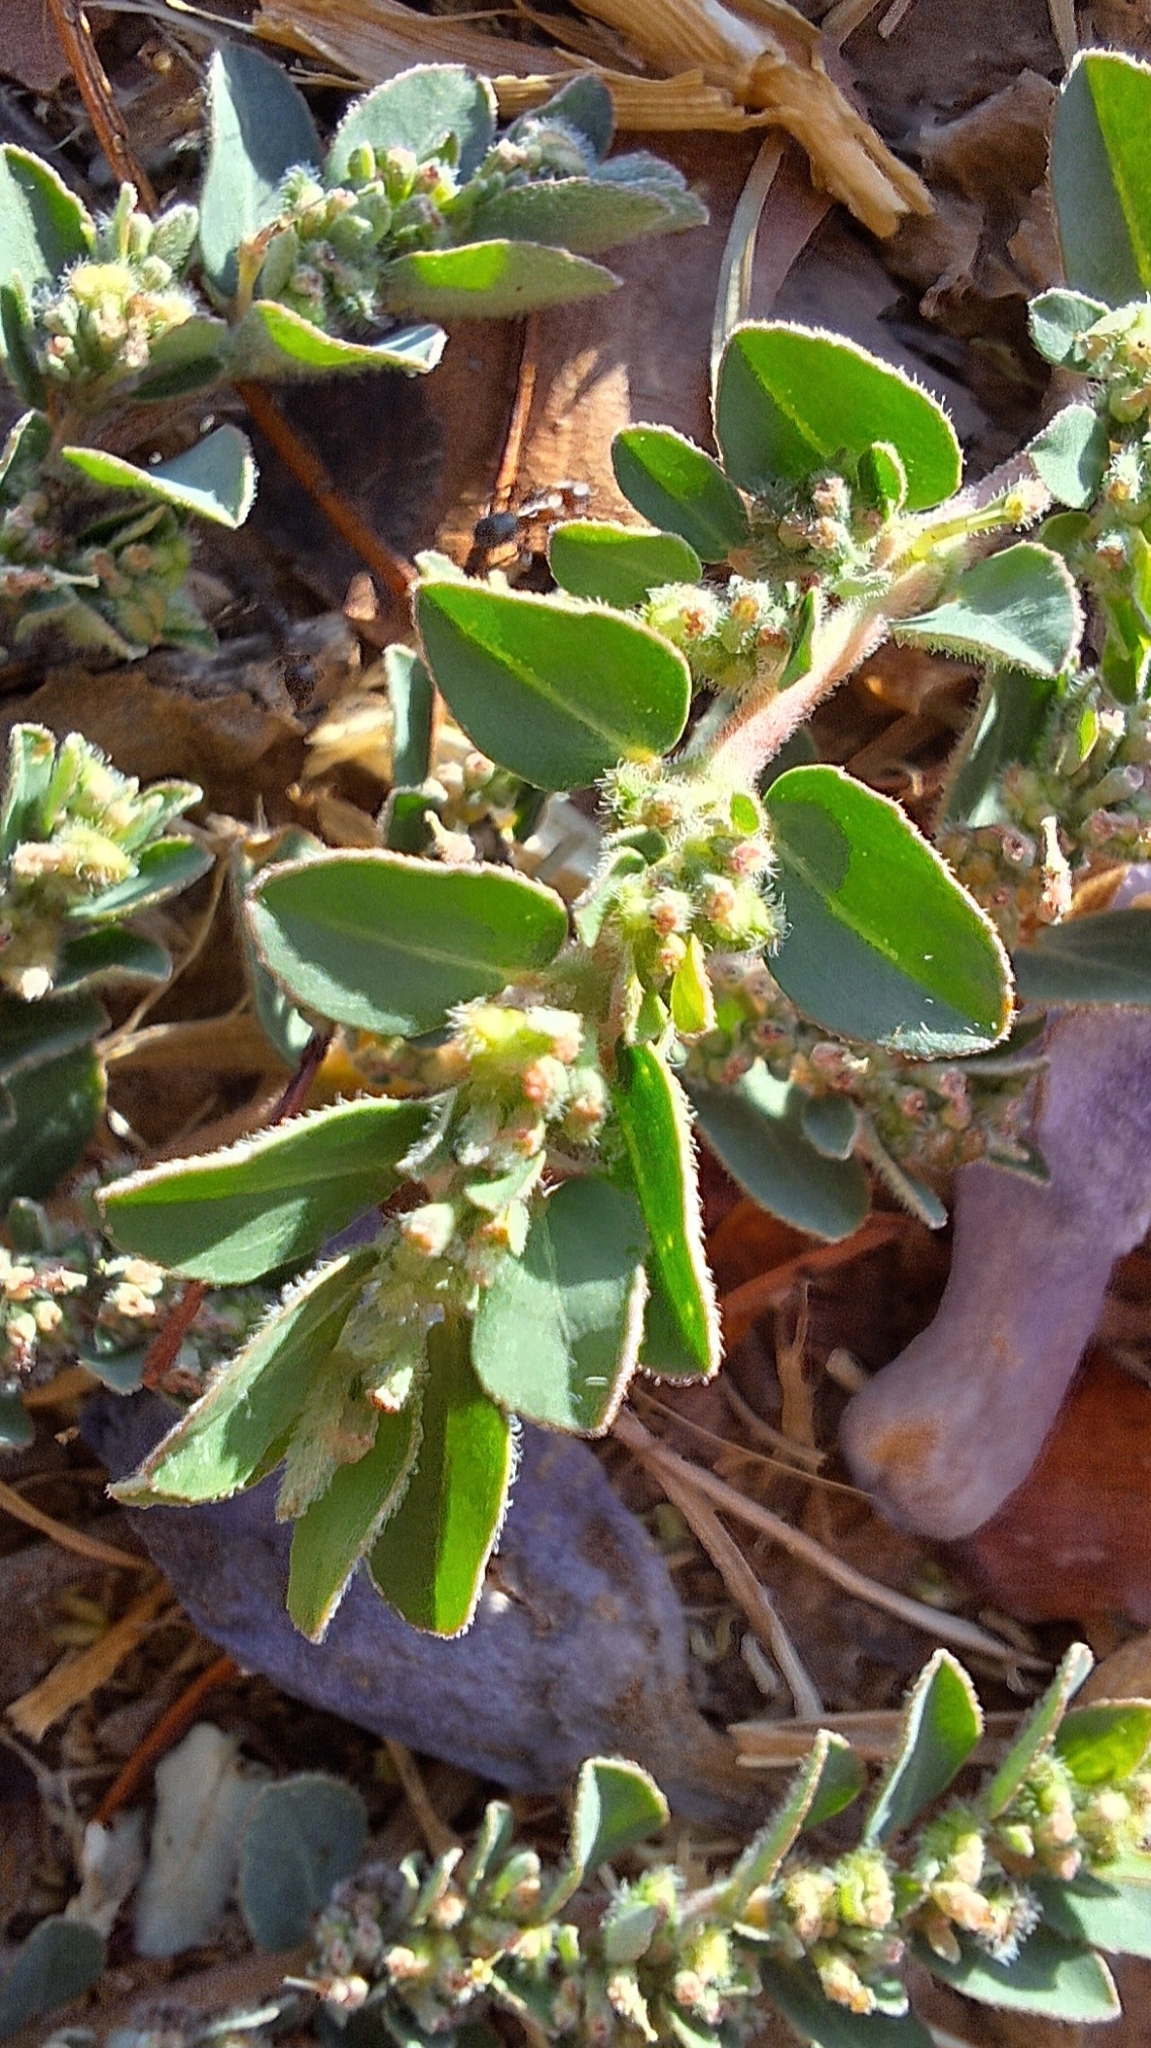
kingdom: Plantae
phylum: Tracheophyta
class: Magnoliopsida
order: Malpighiales
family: Euphorbiaceae
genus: Euphorbia
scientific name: Euphorbia prostrata
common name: Prostrate sandmat
